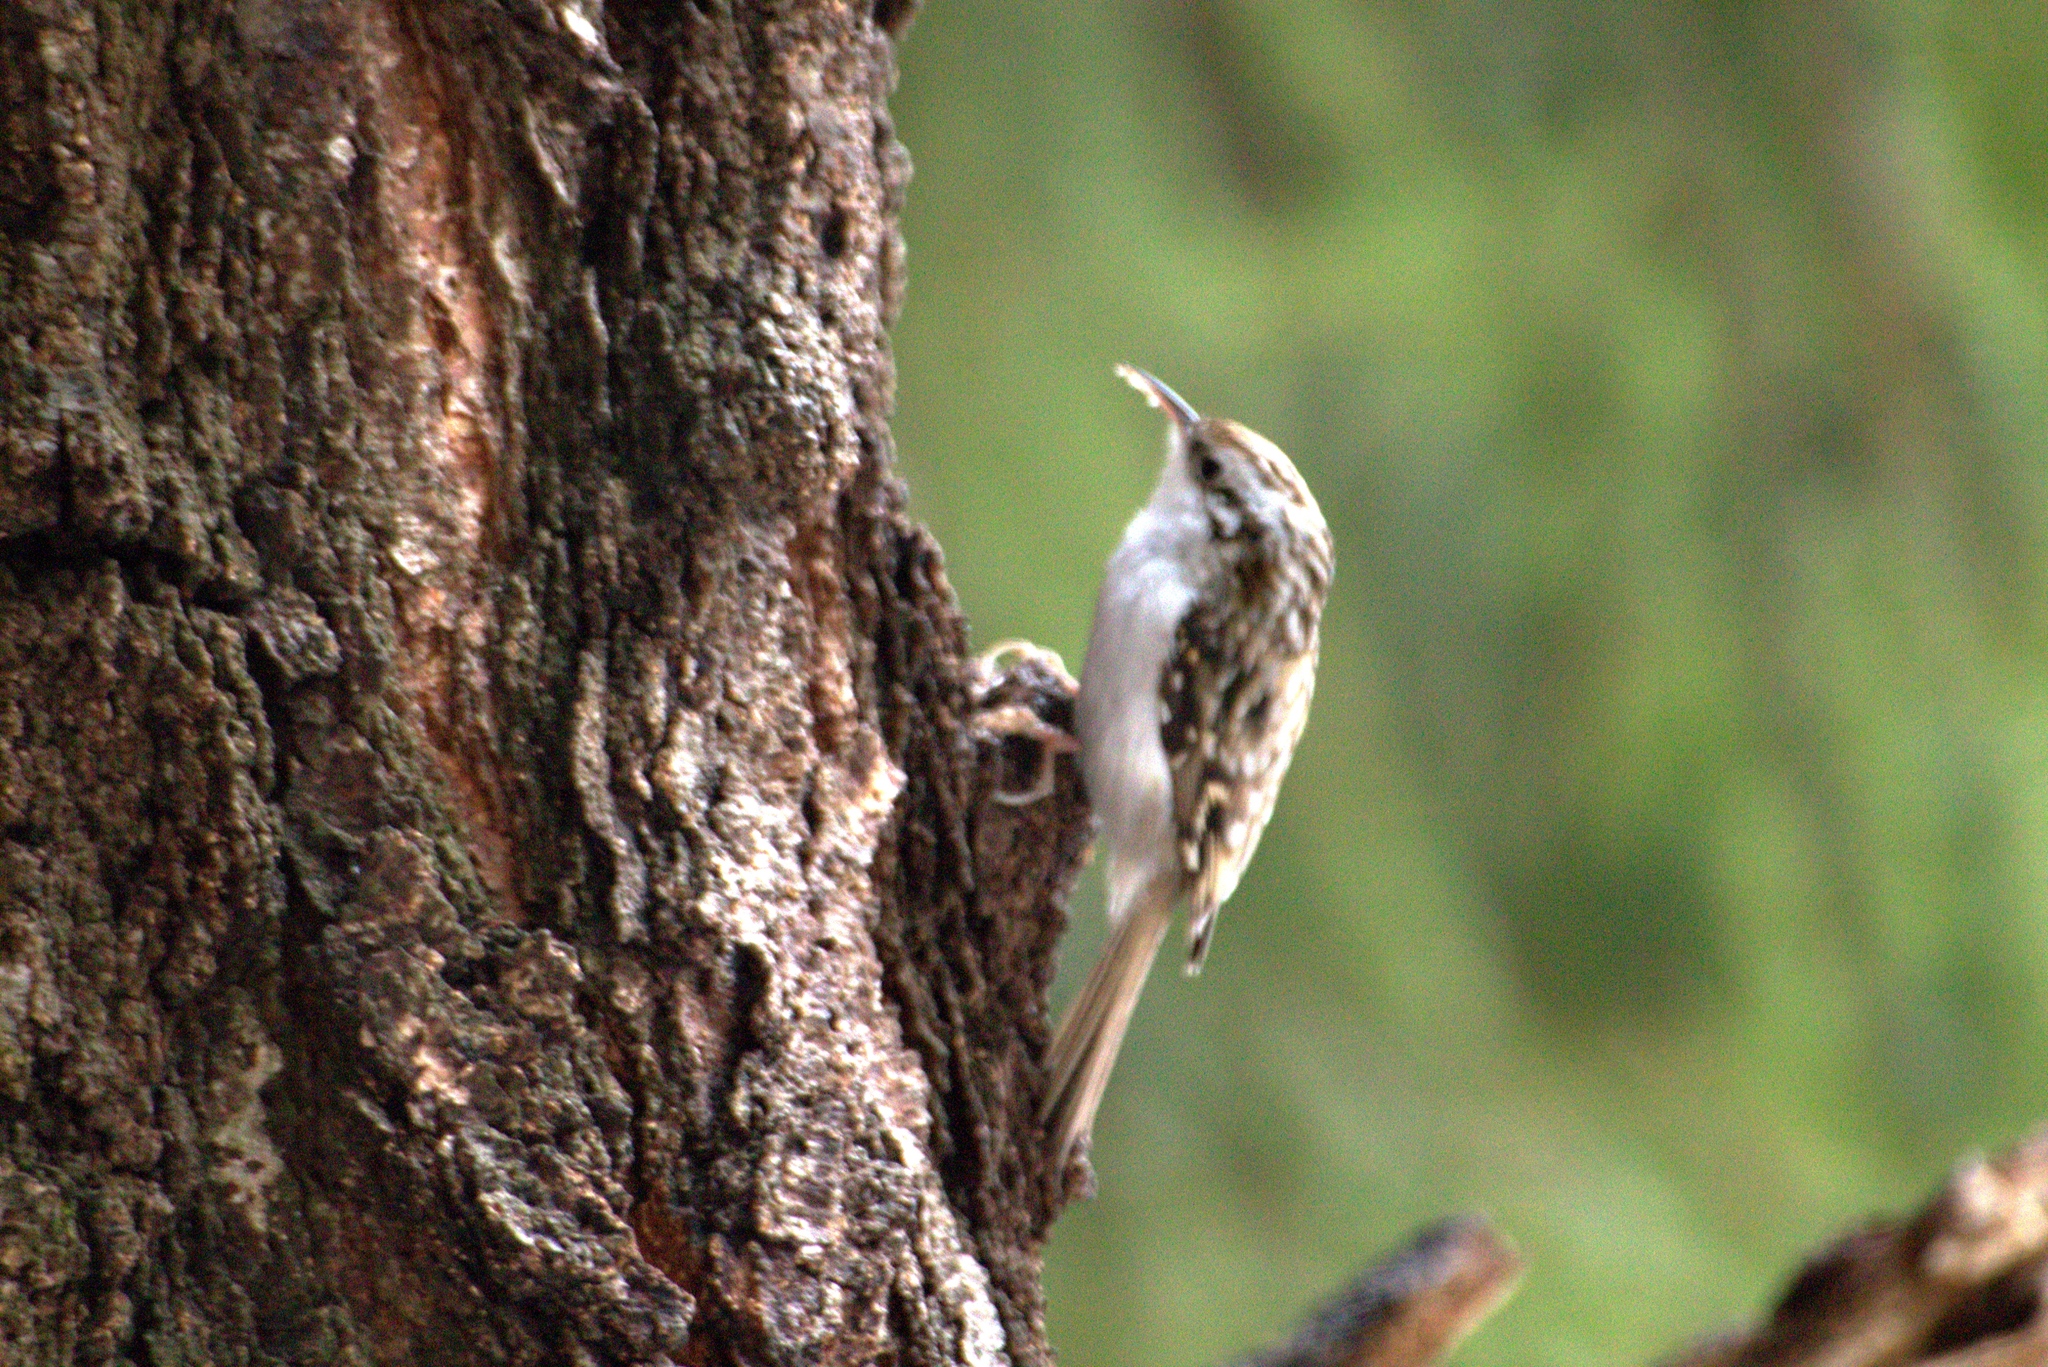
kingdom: Animalia
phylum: Chordata
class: Aves
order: Passeriformes
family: Certhiidae
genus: Certhia
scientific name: Certhia familiaris
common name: Eurasian treecreeper
